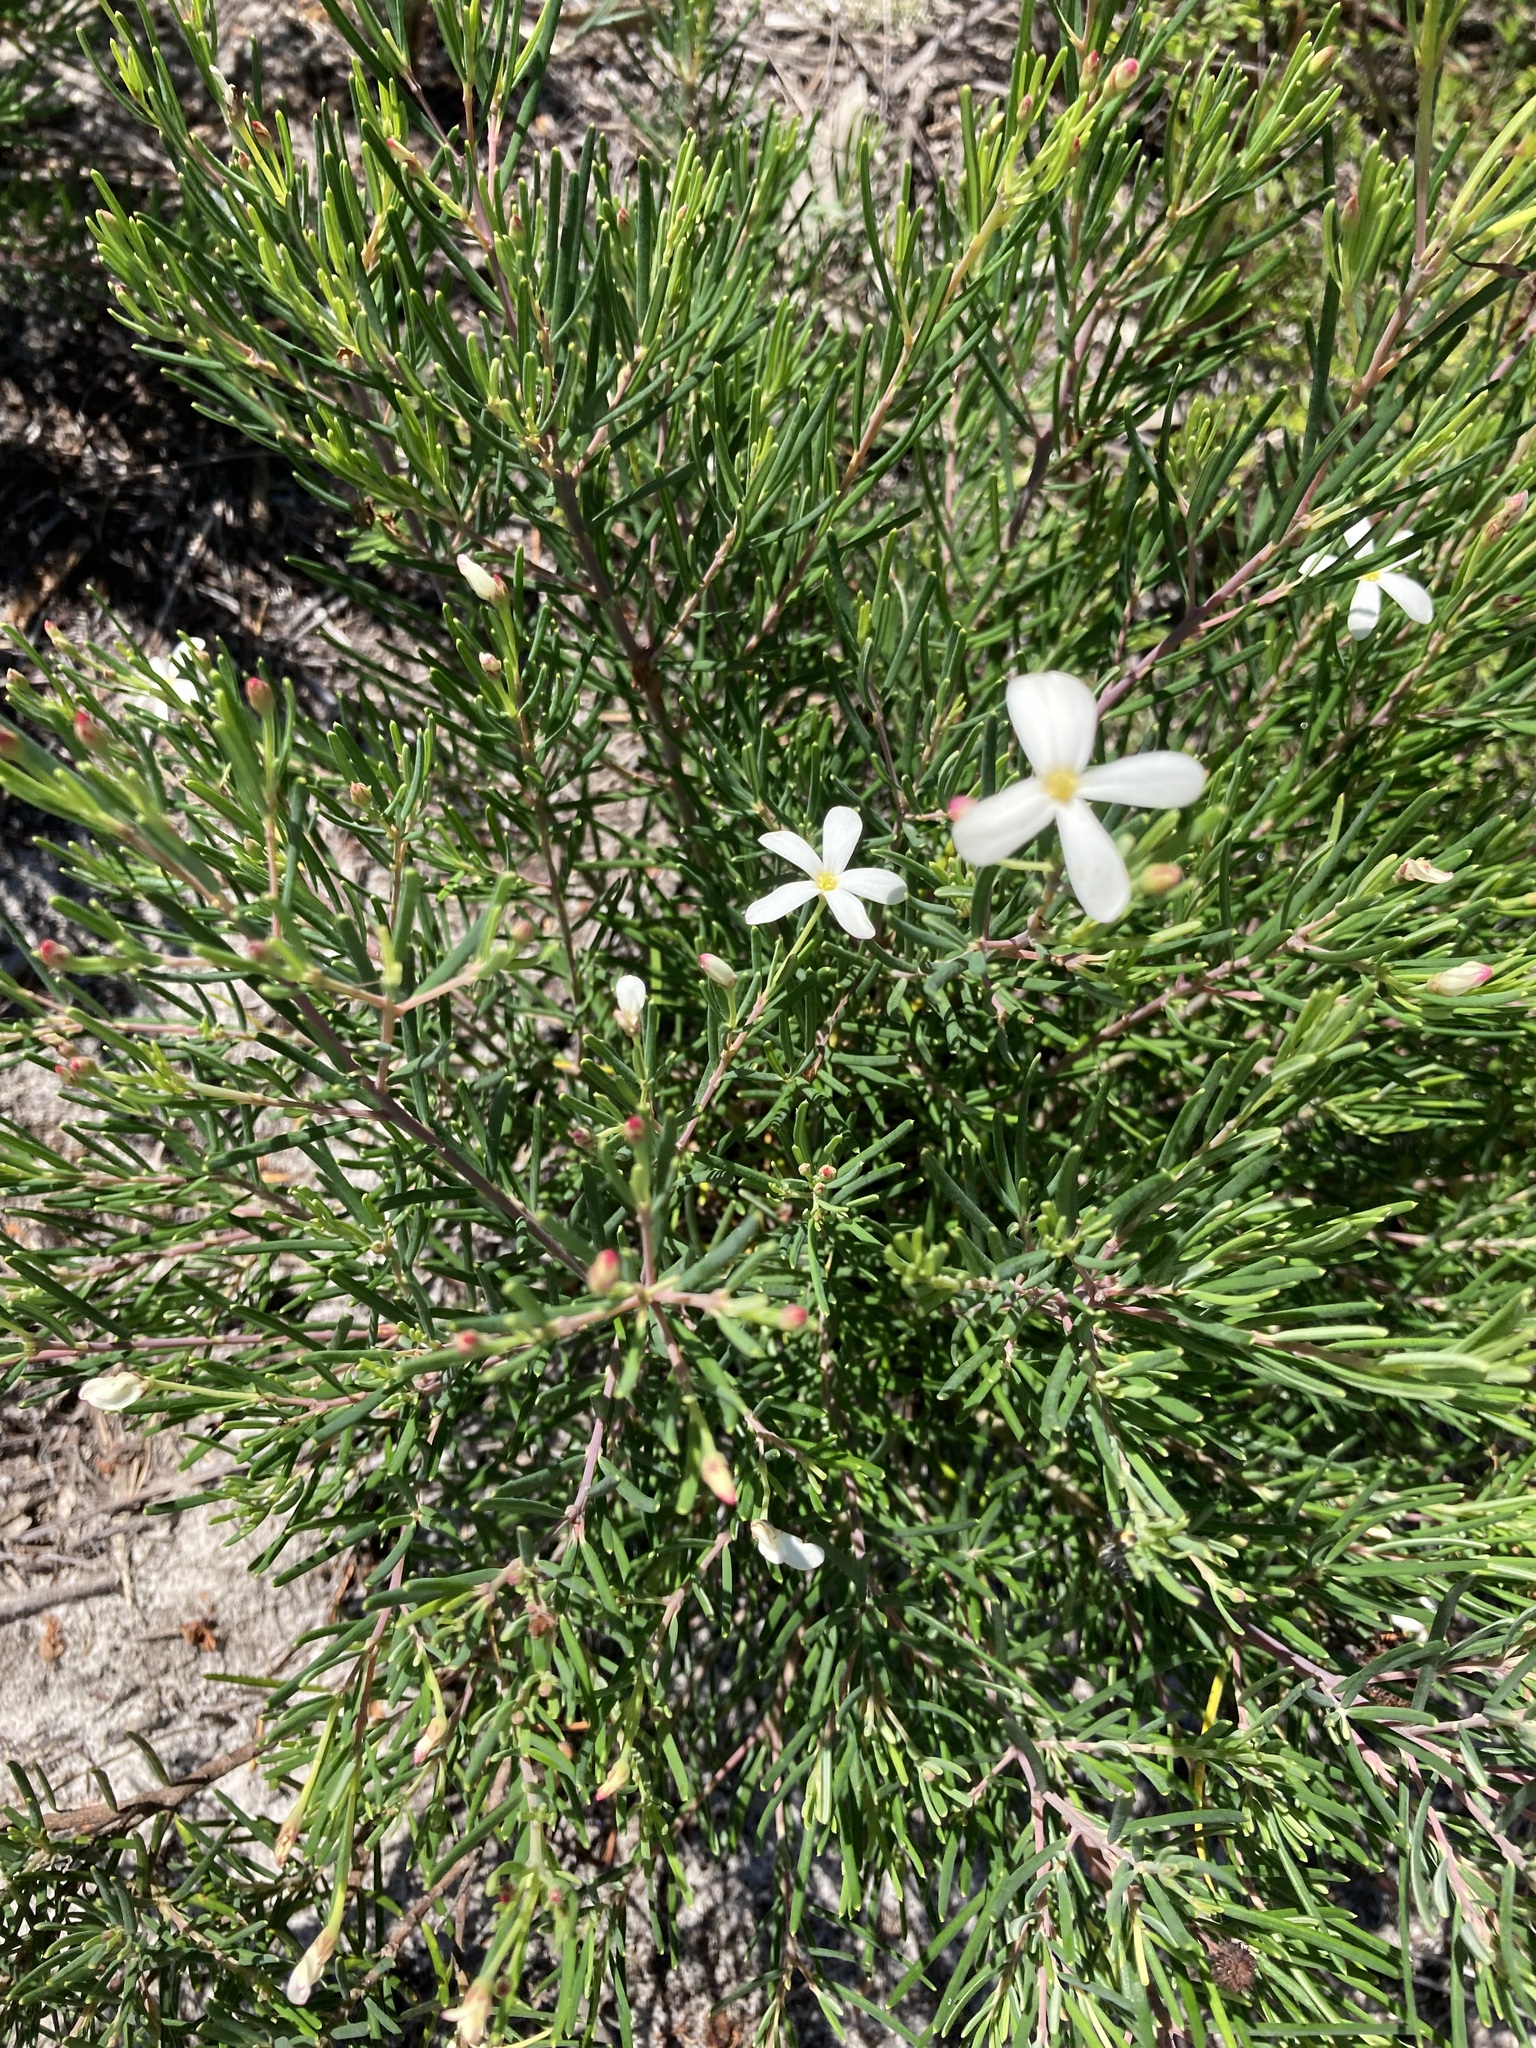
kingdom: Plantae
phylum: Tracheophyta
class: Magnoliopsida
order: Malpighiales
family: Euphorbiaceae
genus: Ricinocarpos
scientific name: Ricinocarpos pinifolius
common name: Weddingbush
